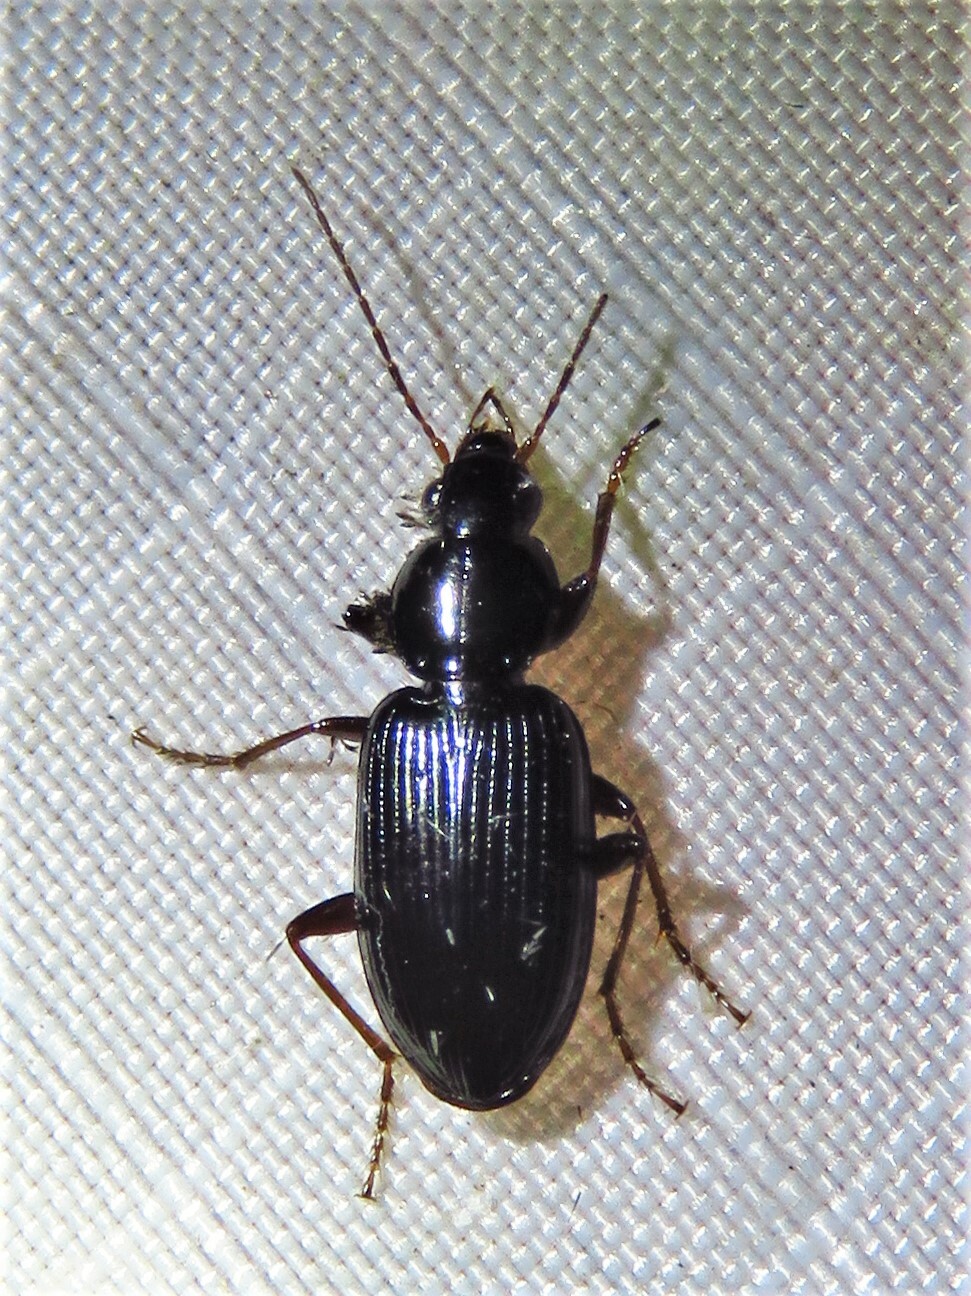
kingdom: Animalia
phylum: Arthropoda
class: Insecta
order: Coleoptera
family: Carabidae
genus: Agonum
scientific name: Agonum punctiforme
